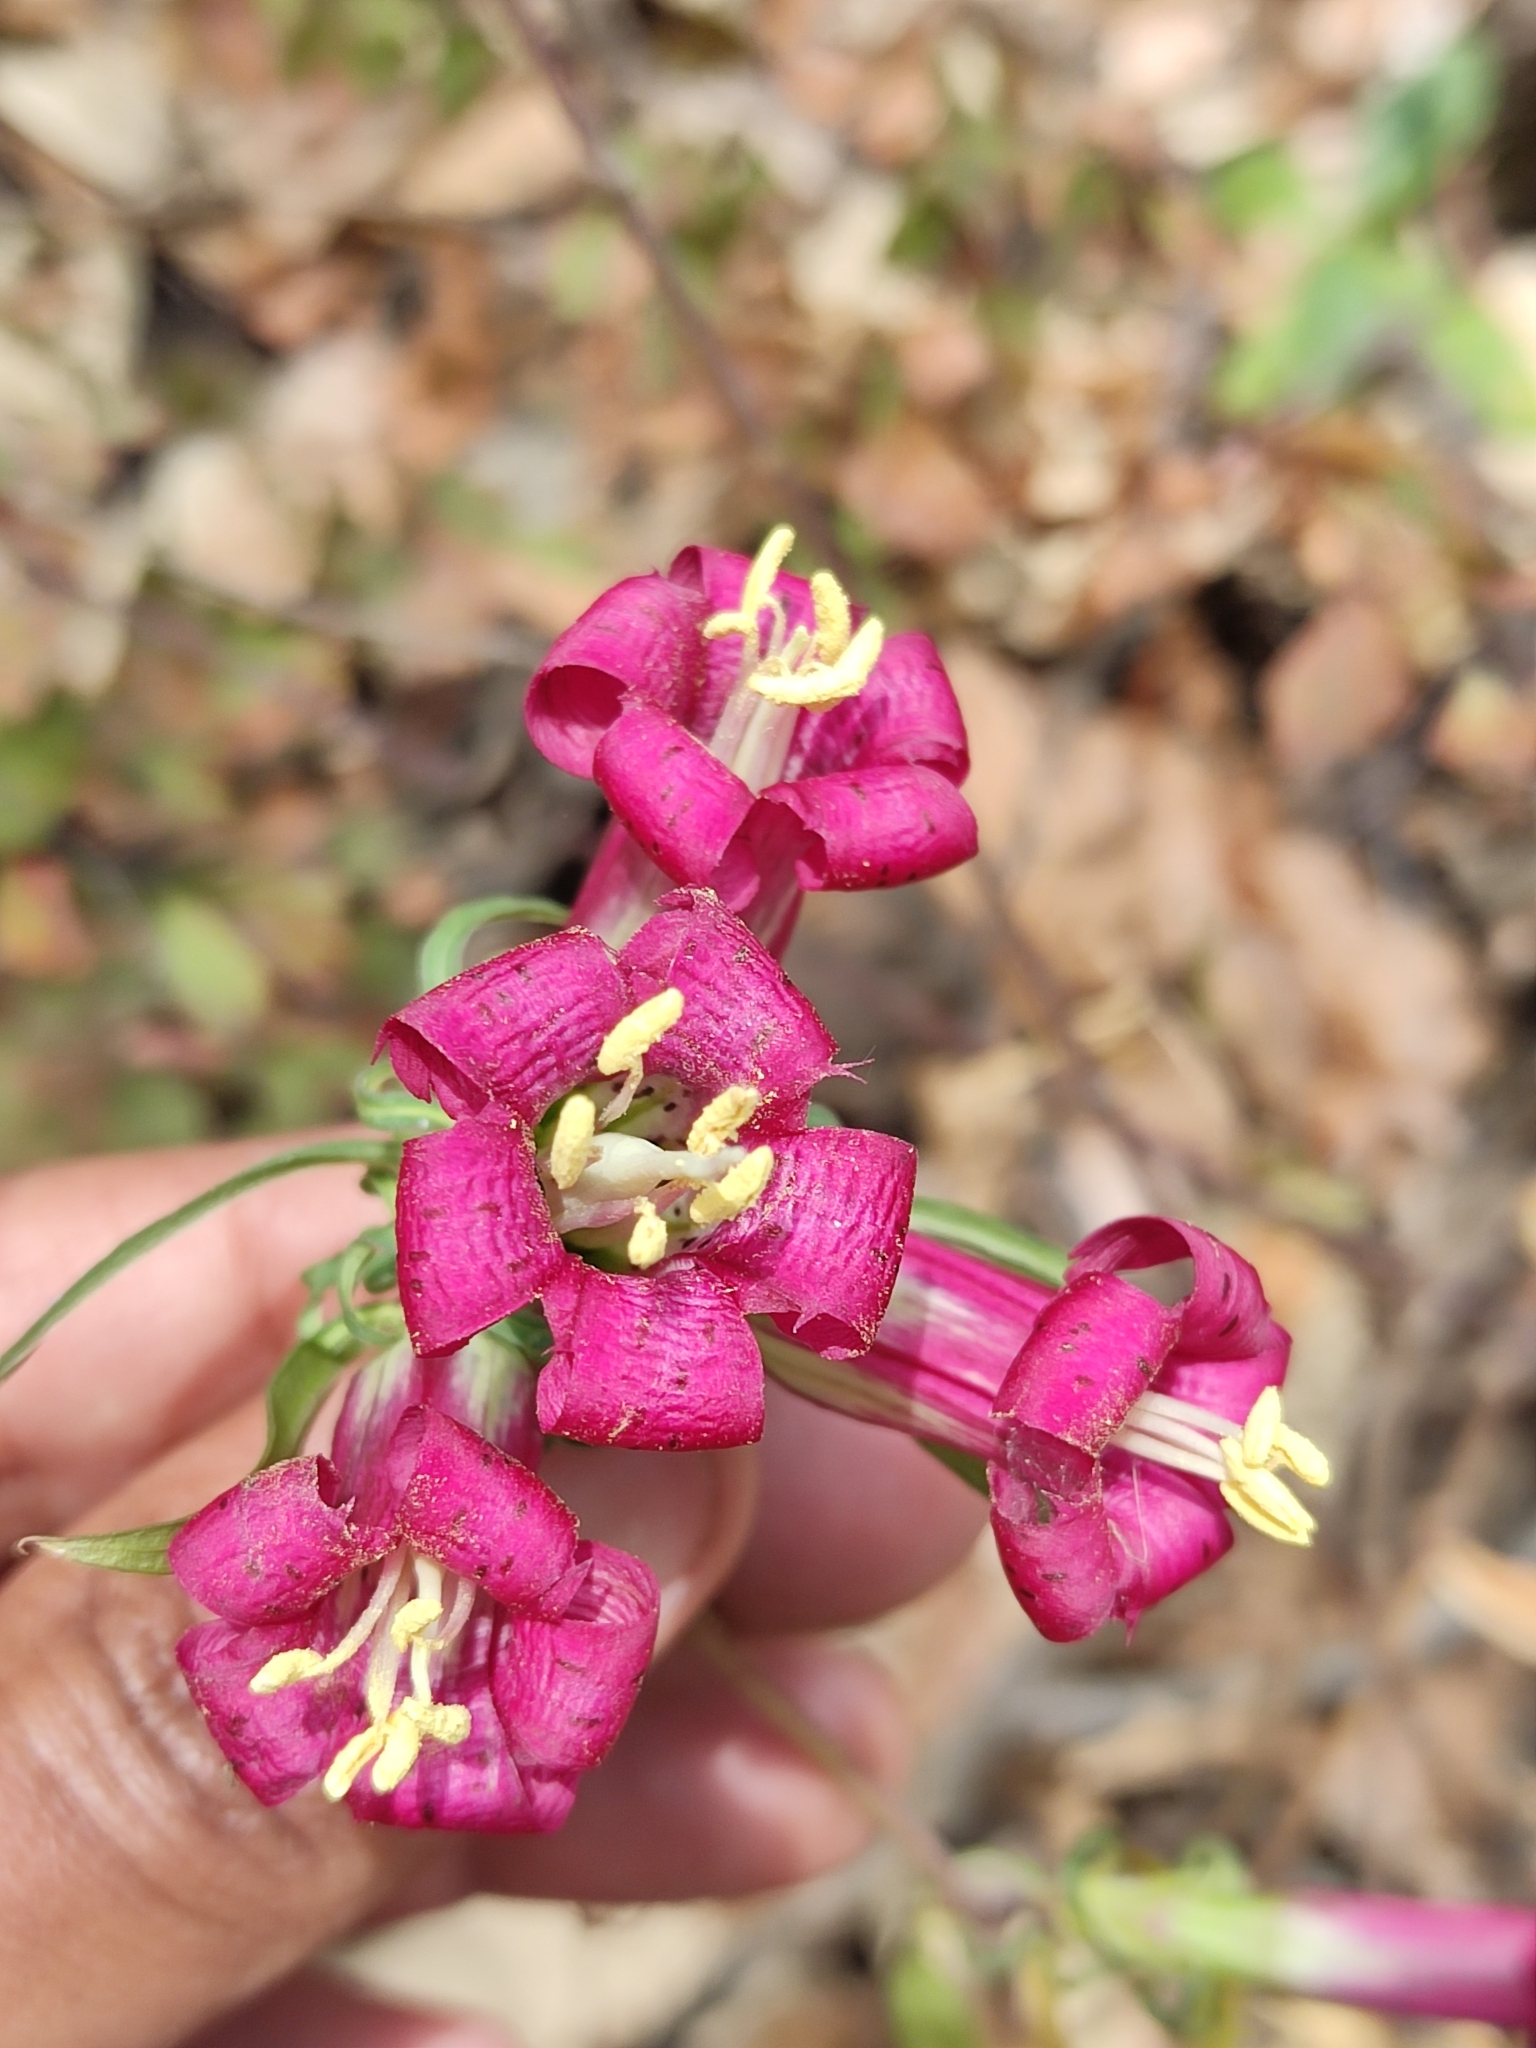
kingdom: Plantae
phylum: Tracheophyta
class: Magnoliopsida
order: Gentianales
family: Gentianaceae
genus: Gentiana
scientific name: Gentiana caliculata
